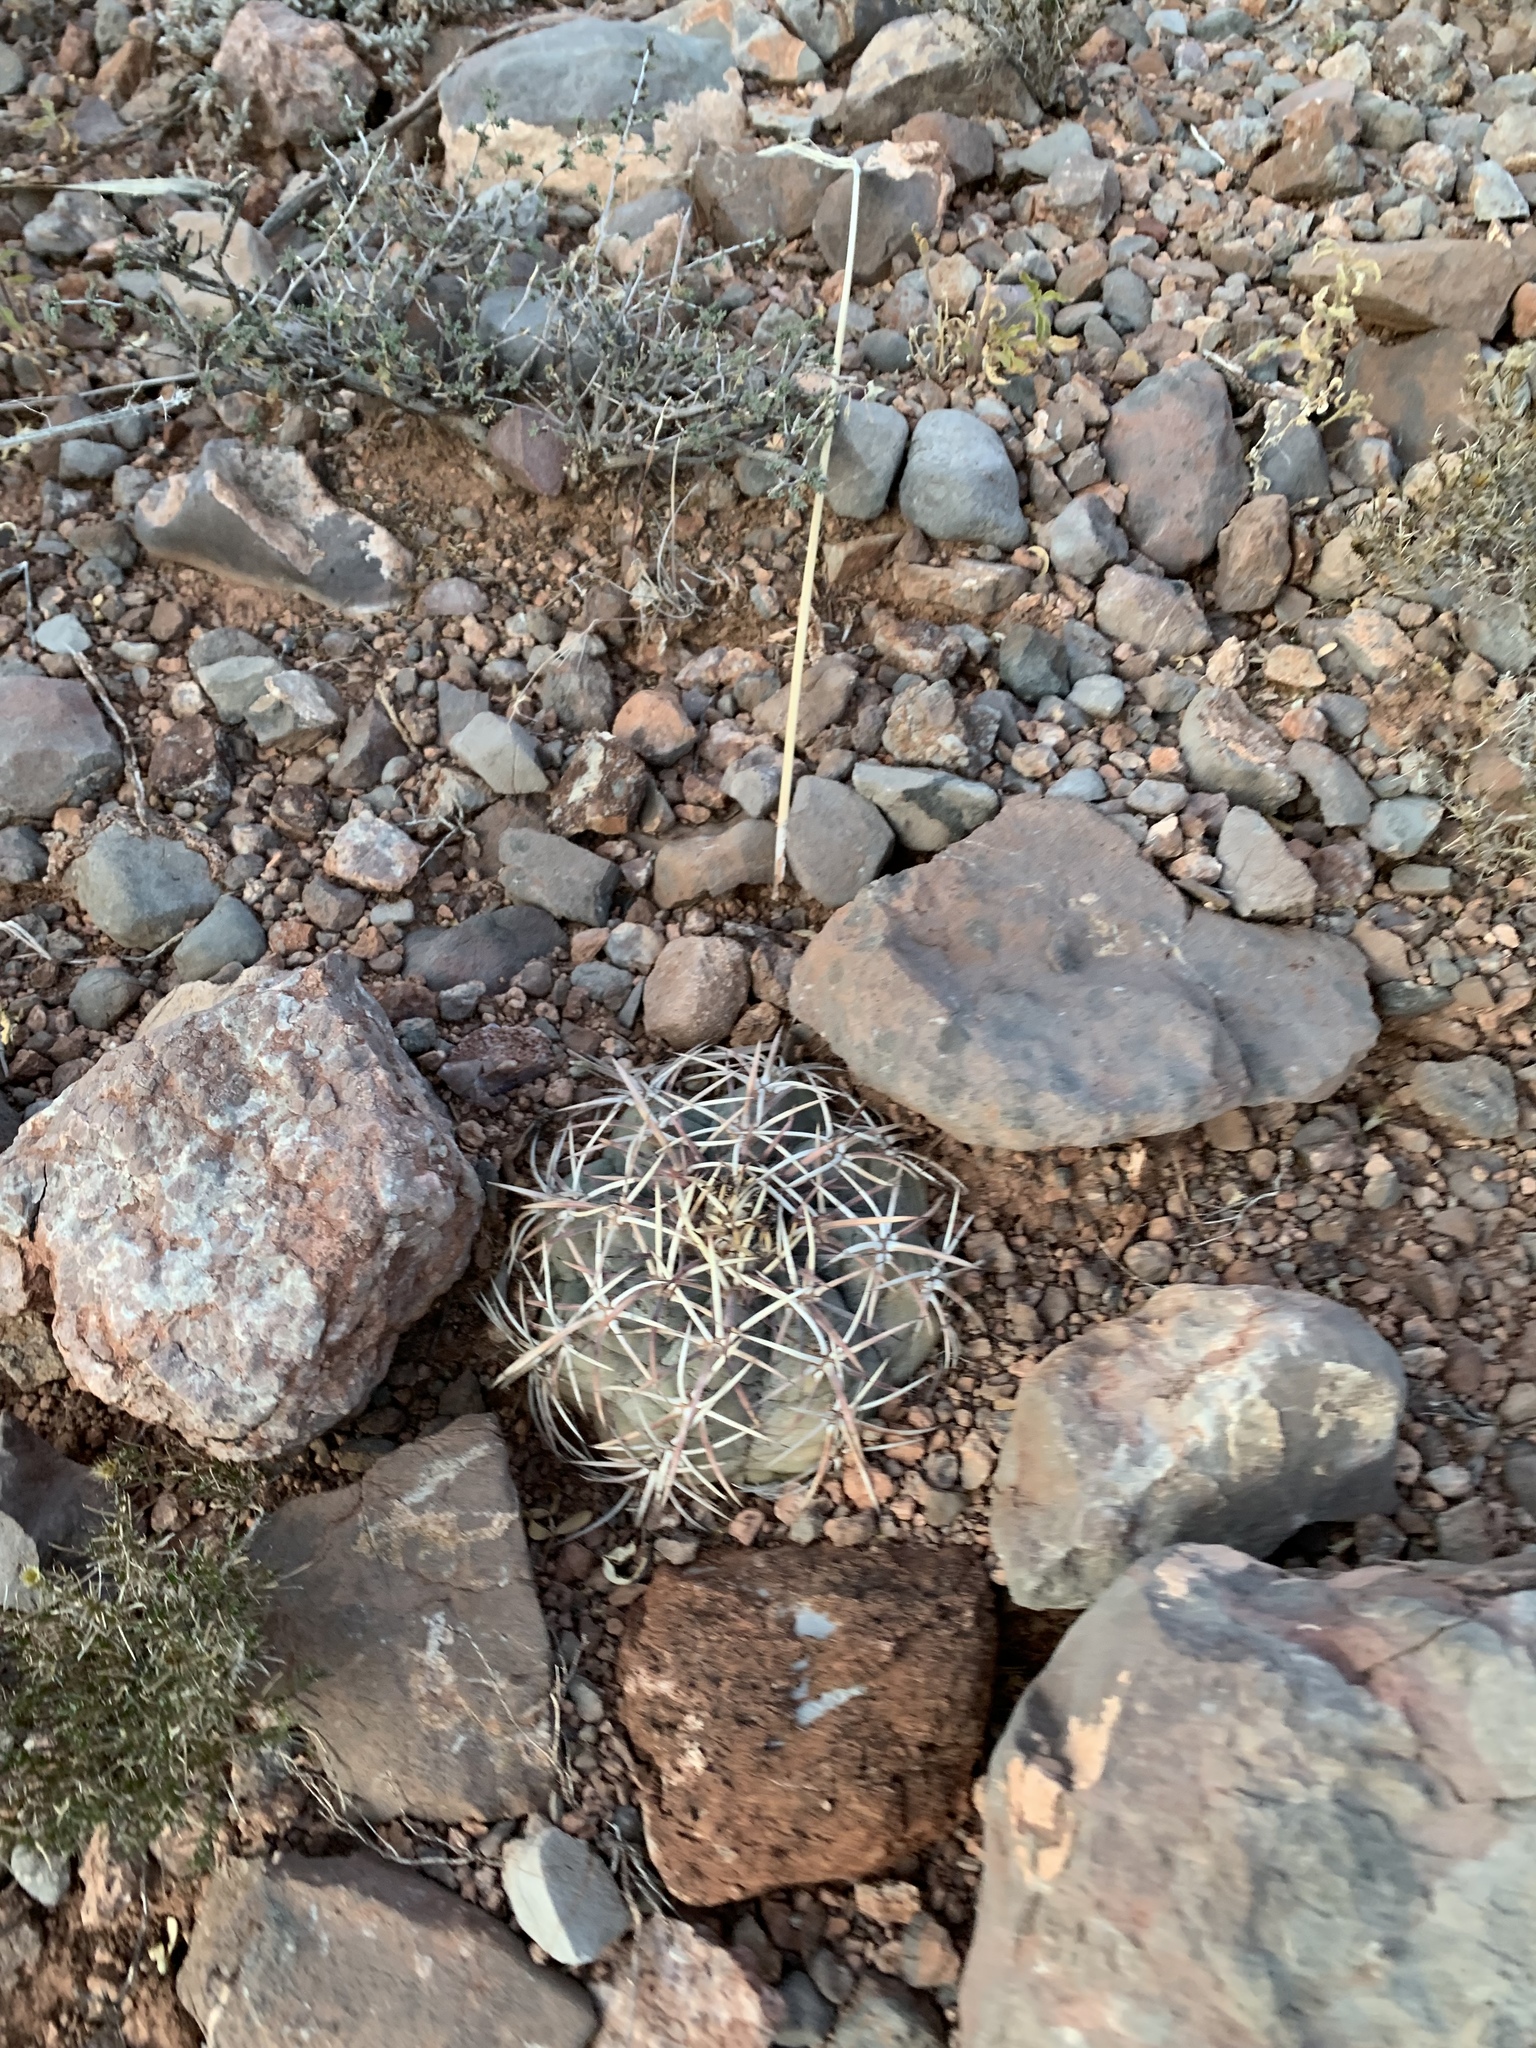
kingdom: Plantae
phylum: Tracheophyta
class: Magnoliopsida
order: Caryophyllales
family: Cactaceae
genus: Echinocactus
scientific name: Echinocactus horizonthalonius
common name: Devilshead
